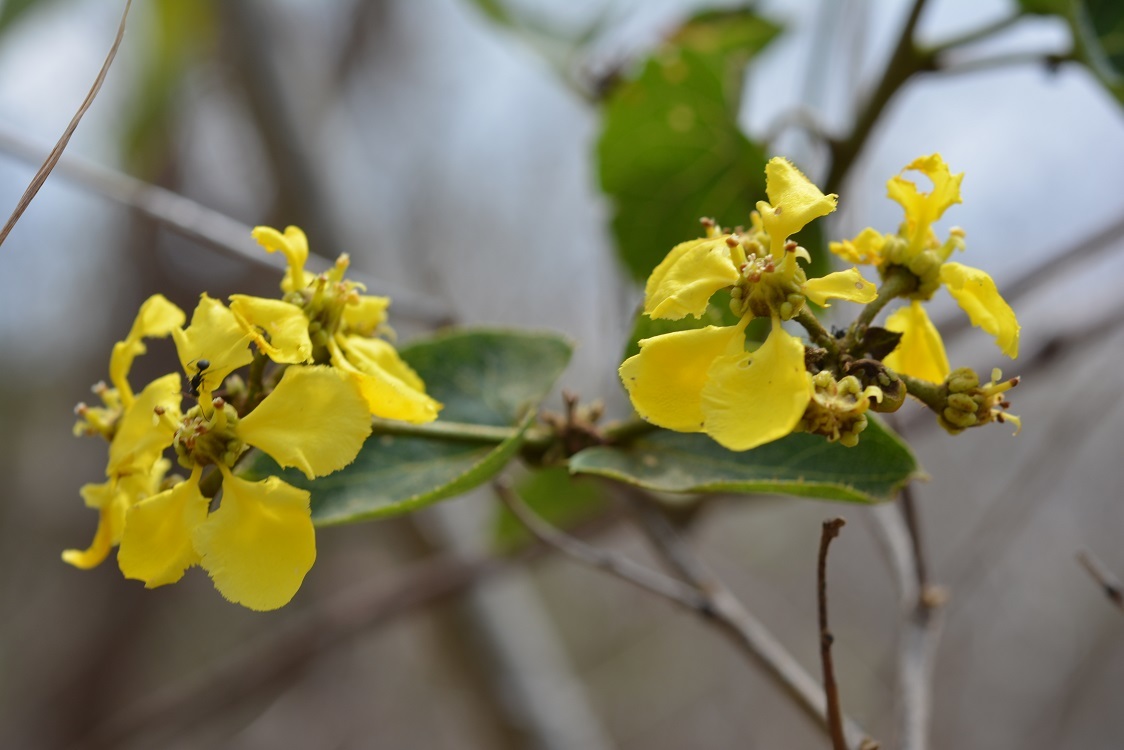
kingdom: Plantae
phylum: Tracheophyta
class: Magnoliopsida
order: Malpighiales
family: Malpighiaceae
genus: Stigmaphyllon
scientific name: Stigmaphyllon dichotomum
